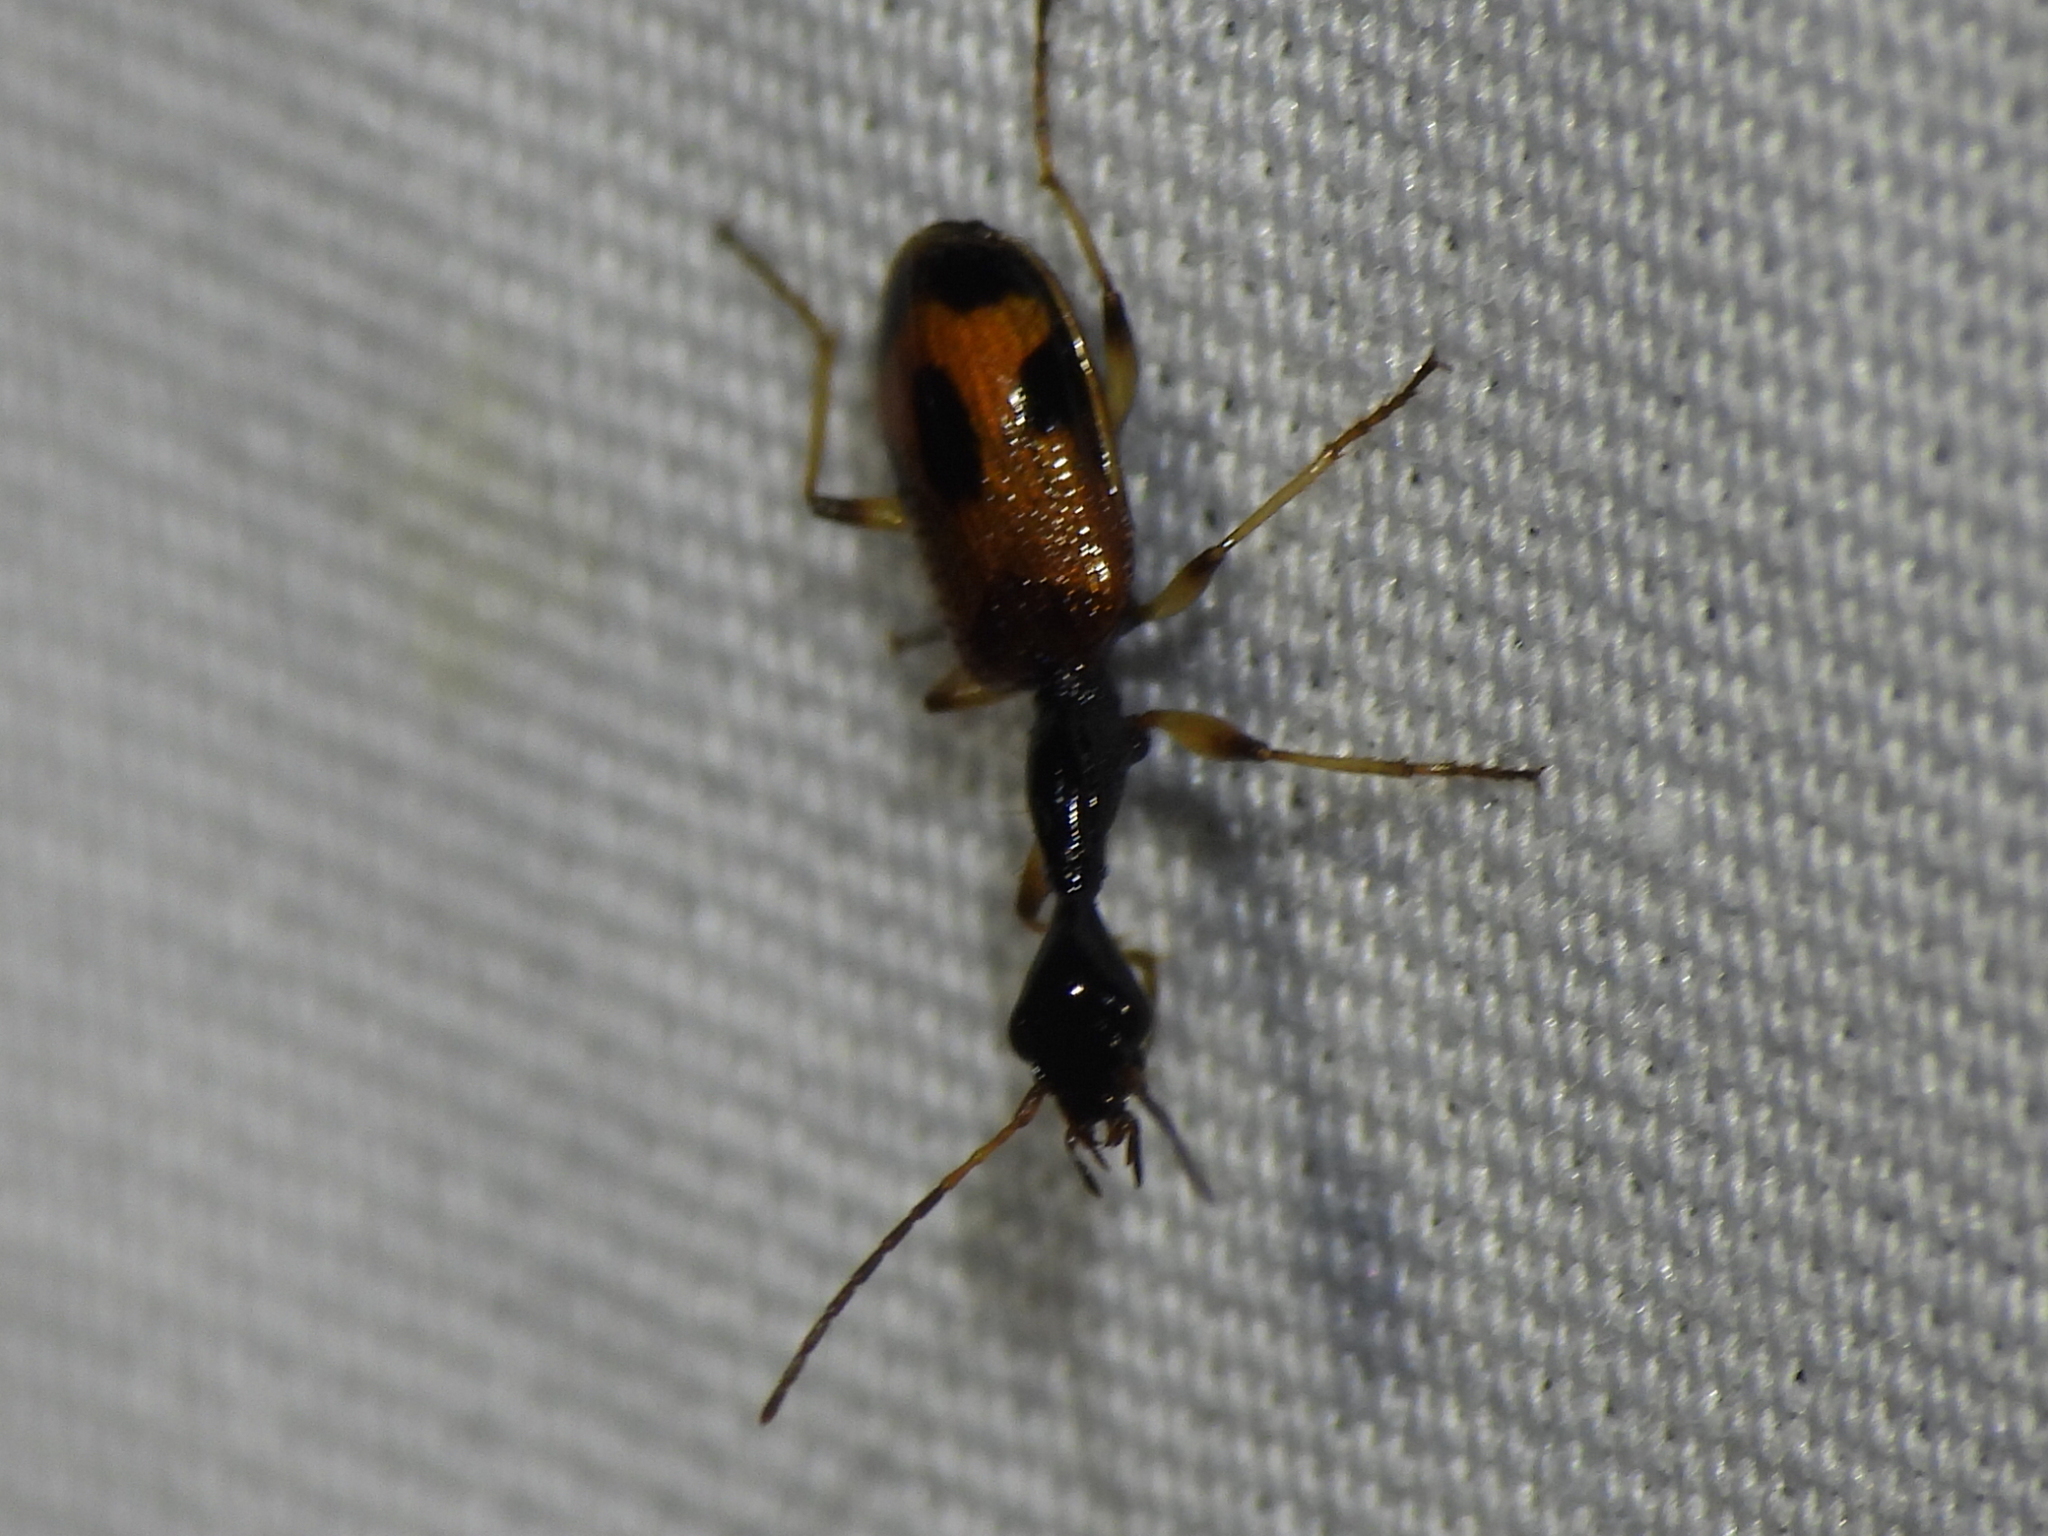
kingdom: Animalia
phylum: Arthropoda
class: Insecta
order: Coleoptera
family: Carabidae
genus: Colliuris
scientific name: Colliuris pensylvanica
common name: Long-necked ground beetle
